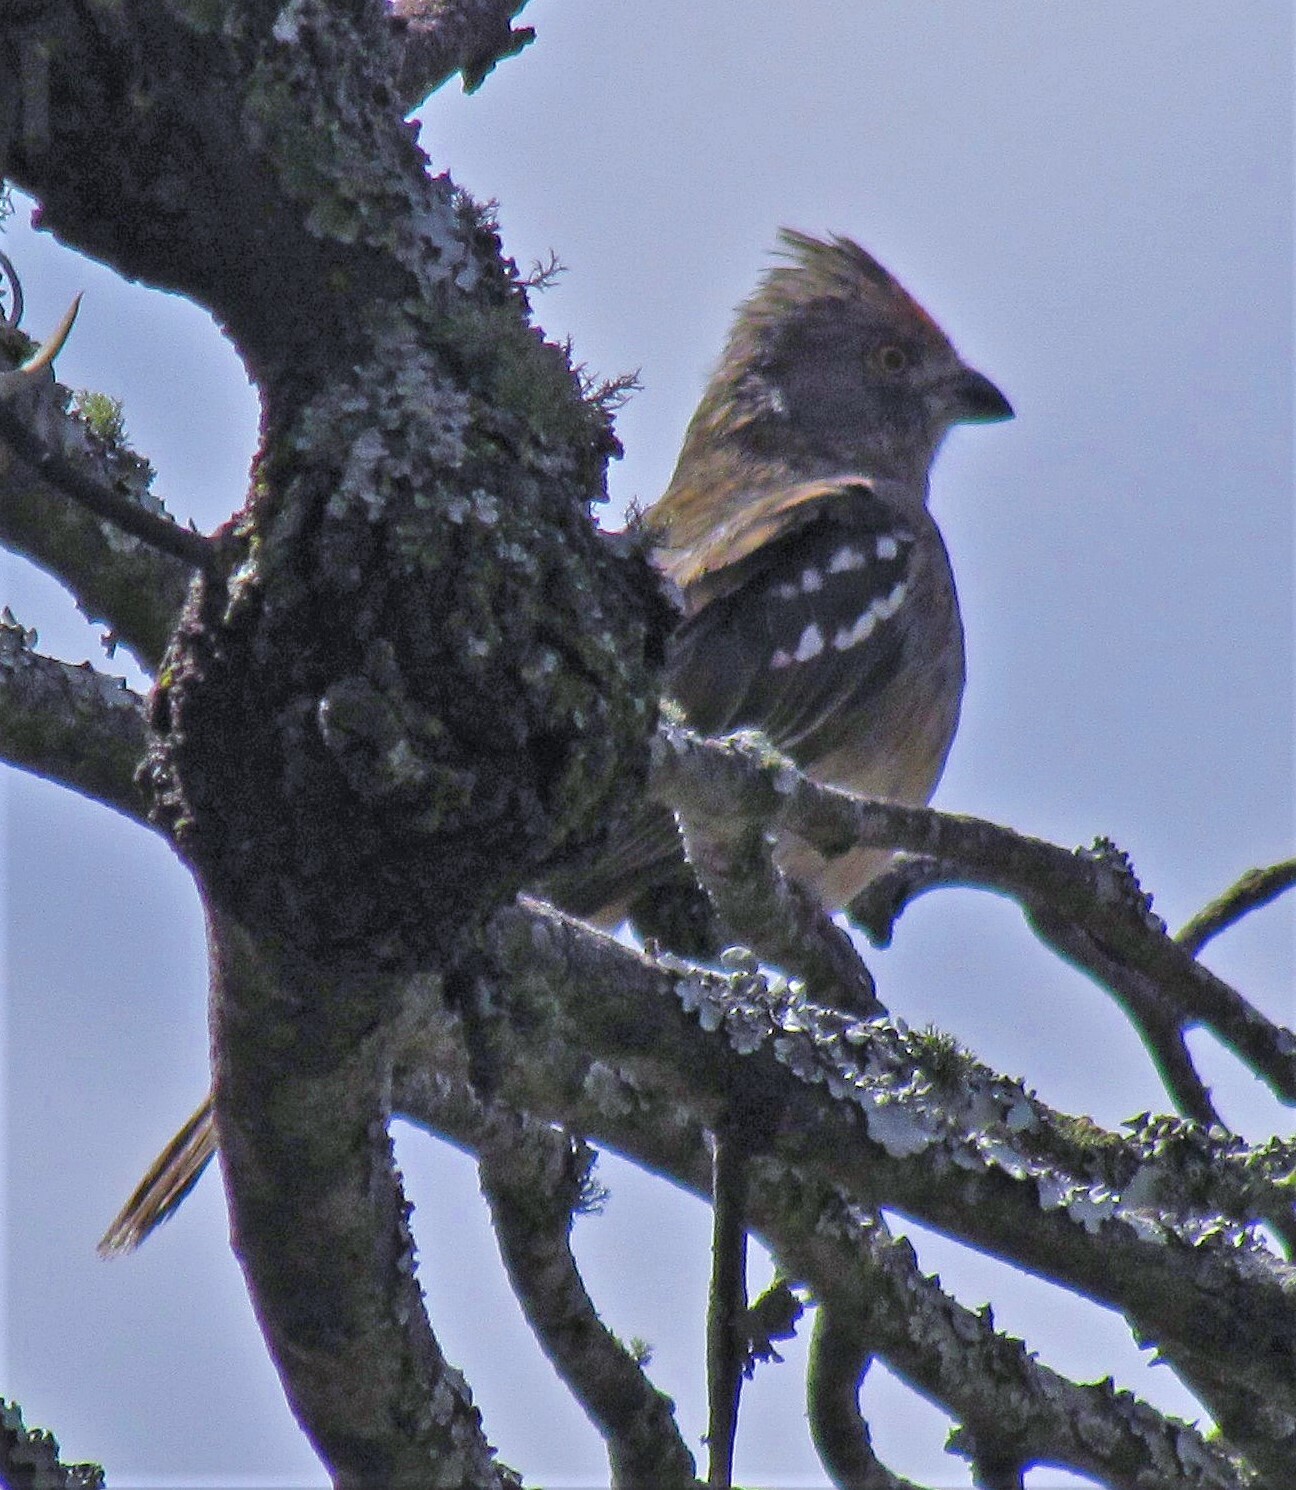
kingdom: Animalia
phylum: Chordata
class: Aves
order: Passeriformes
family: Cotingidae
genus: Phytotoma
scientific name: Phytotoma rutila
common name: White-tipped plantcutter
